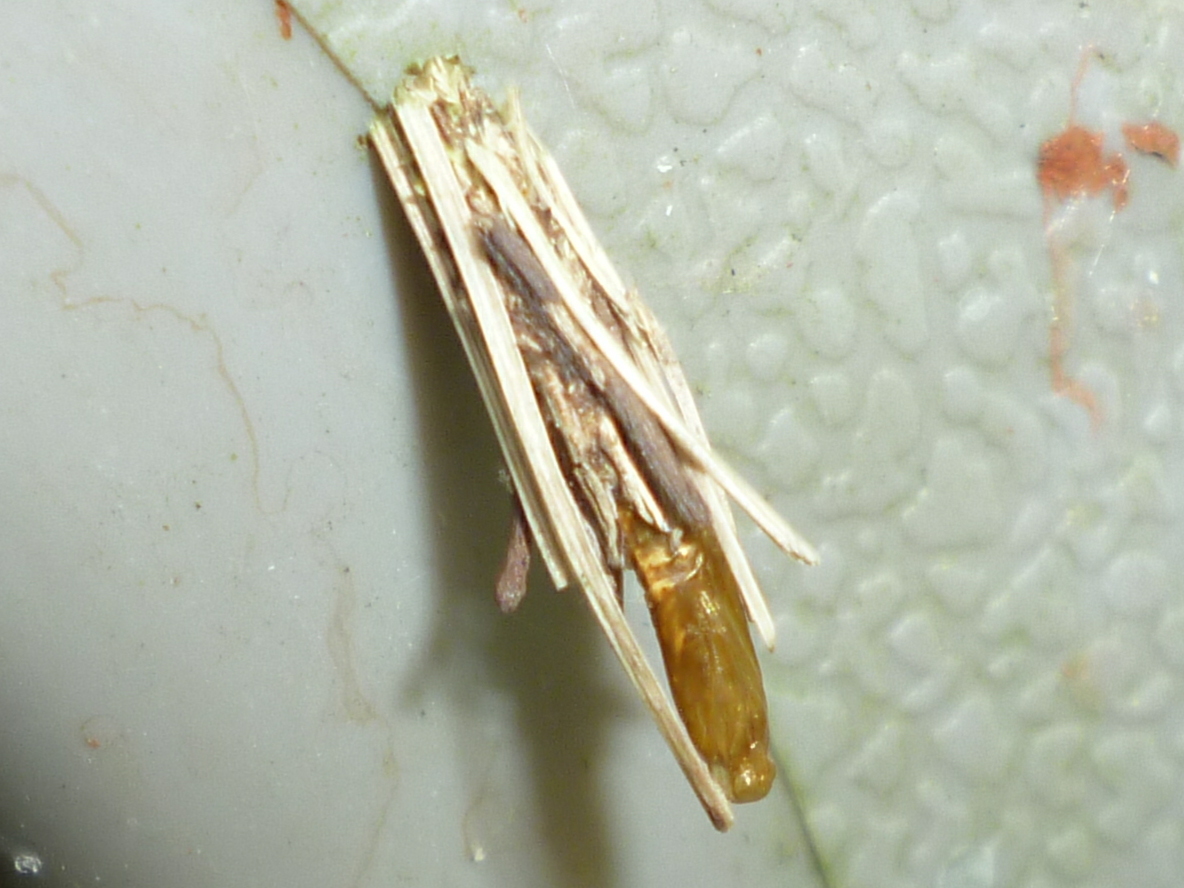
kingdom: Animalia
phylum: Arthropoda
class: Insecta
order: Lepidoptera
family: Psychidae
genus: Psyche
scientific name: Psyche casta
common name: Common sweep
